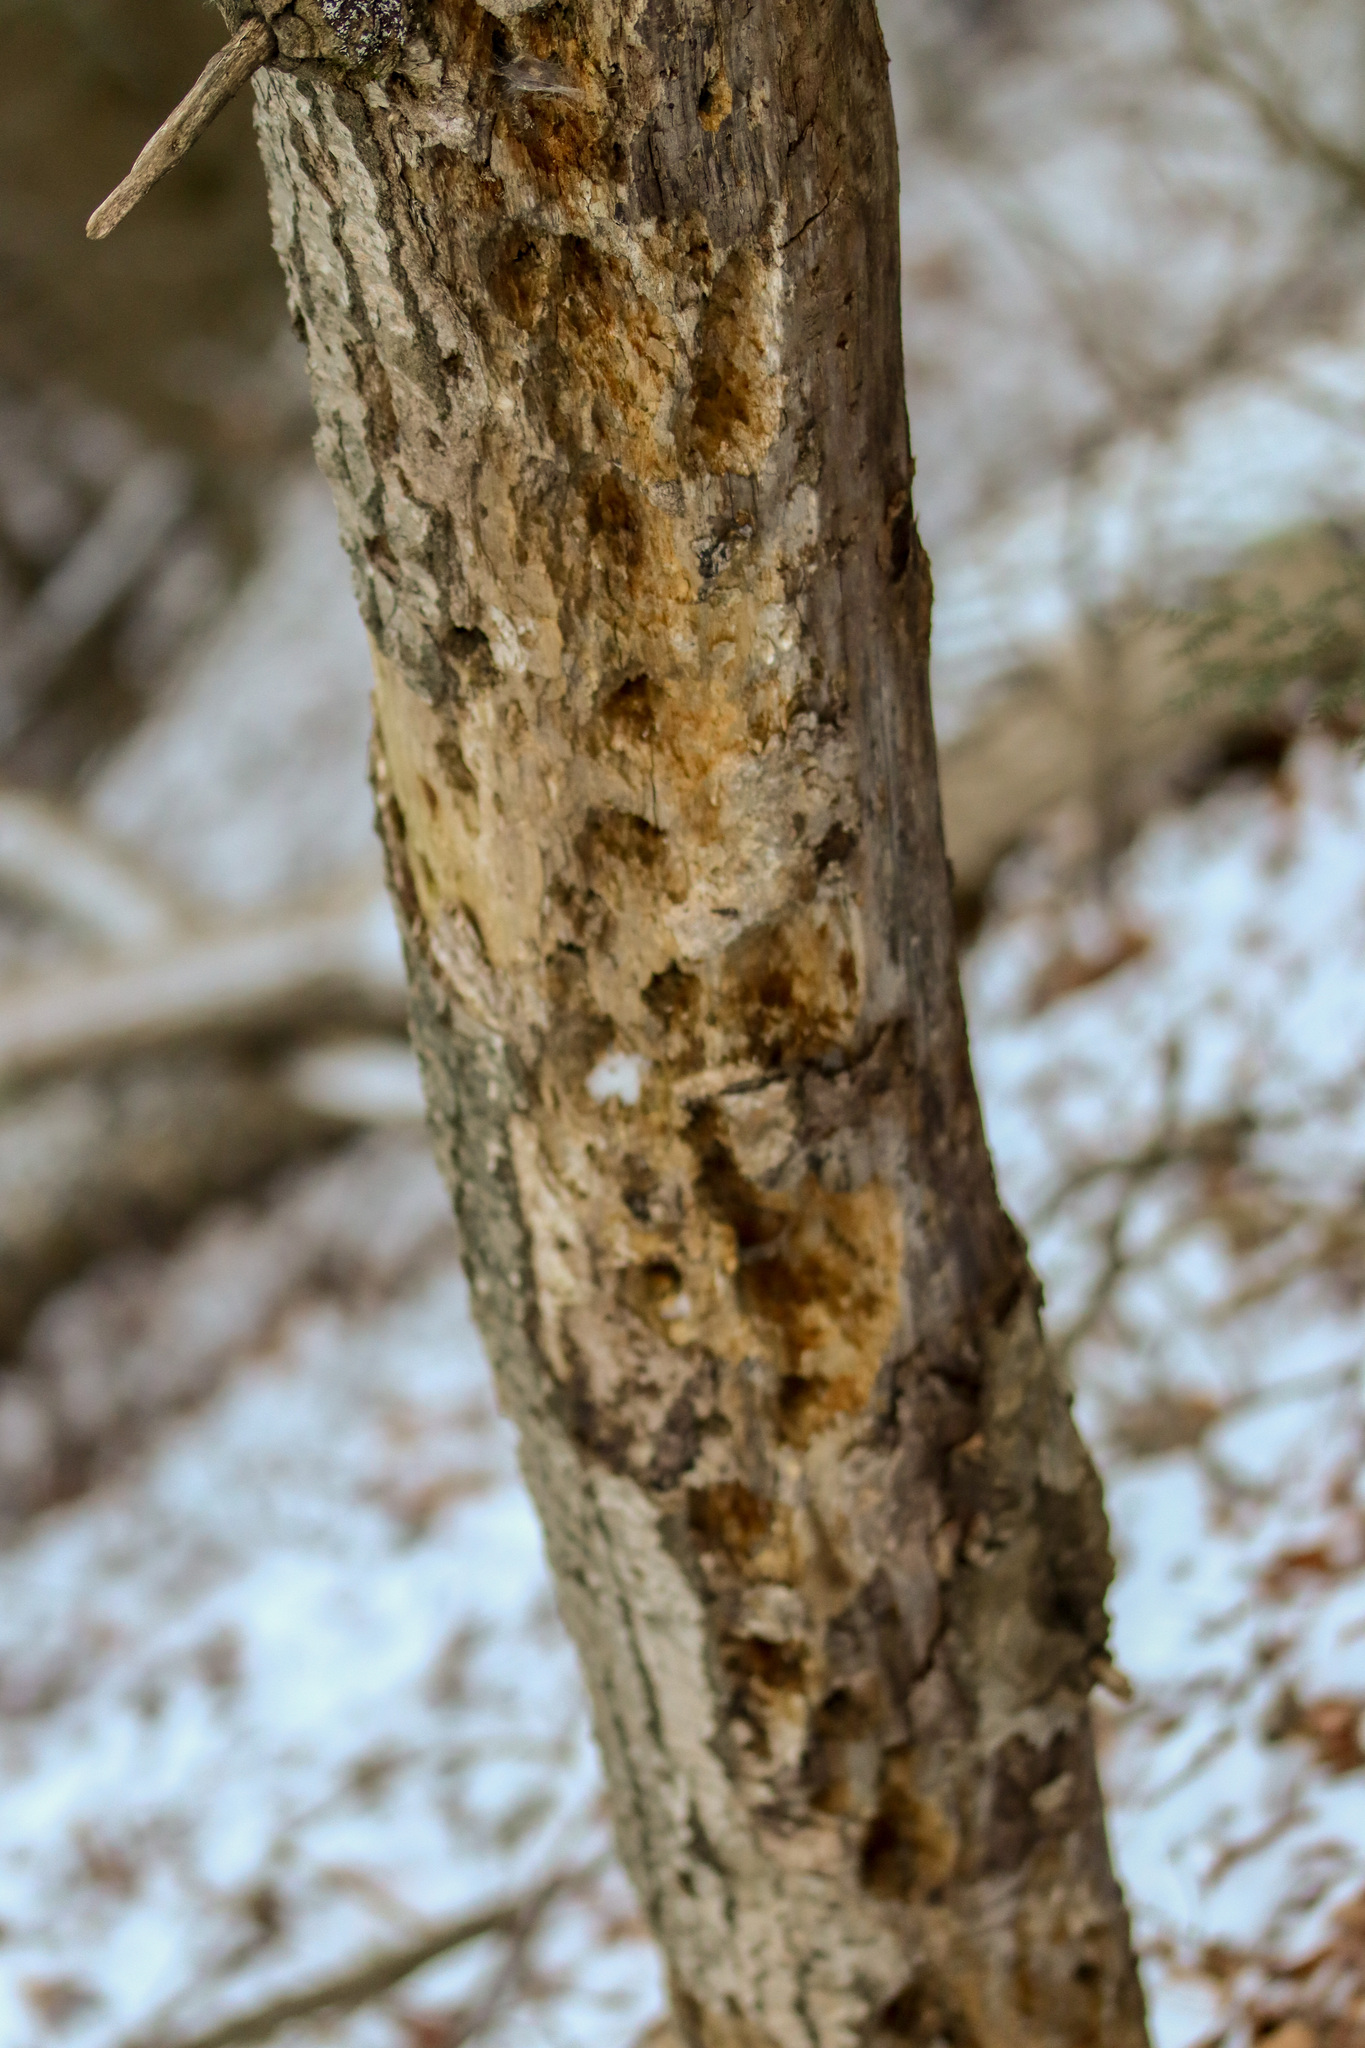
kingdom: Animalia
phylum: Chordata
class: Aves
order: Piciformes
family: Picidae
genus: Dryocopus
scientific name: Dryocopus pileatus
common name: Pileated woodpecker
